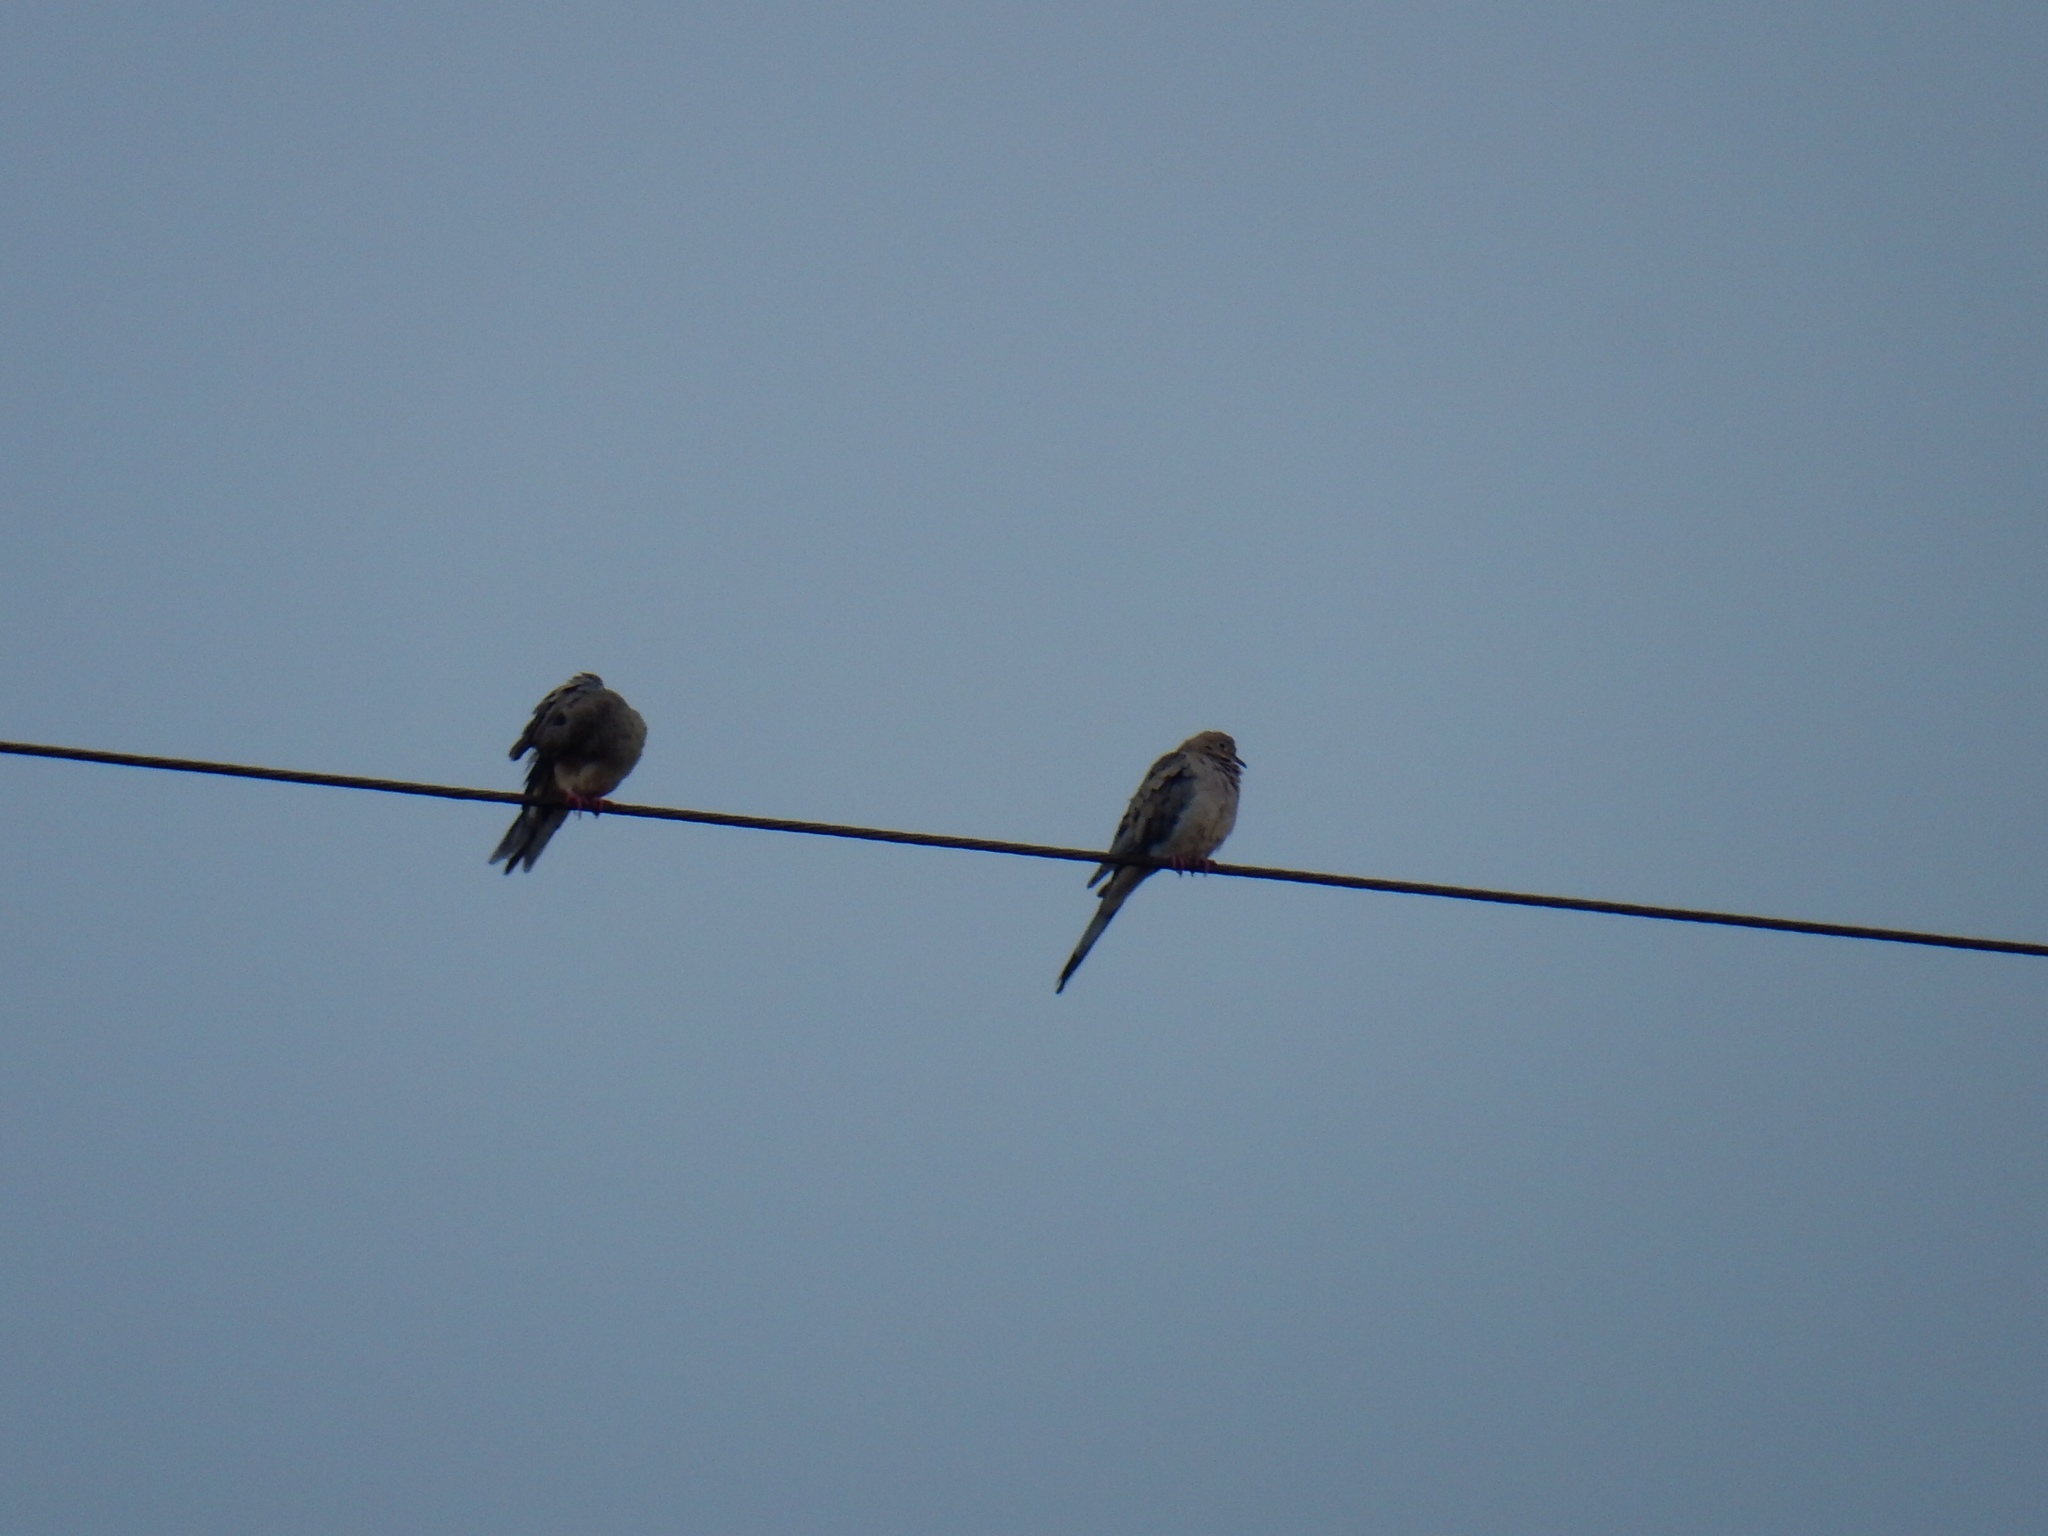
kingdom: Animalia
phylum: Chordata
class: Aves
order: Columbiformes
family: Columbidae
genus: Zenaida
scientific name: Zenaida macroura
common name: Mourning dove
